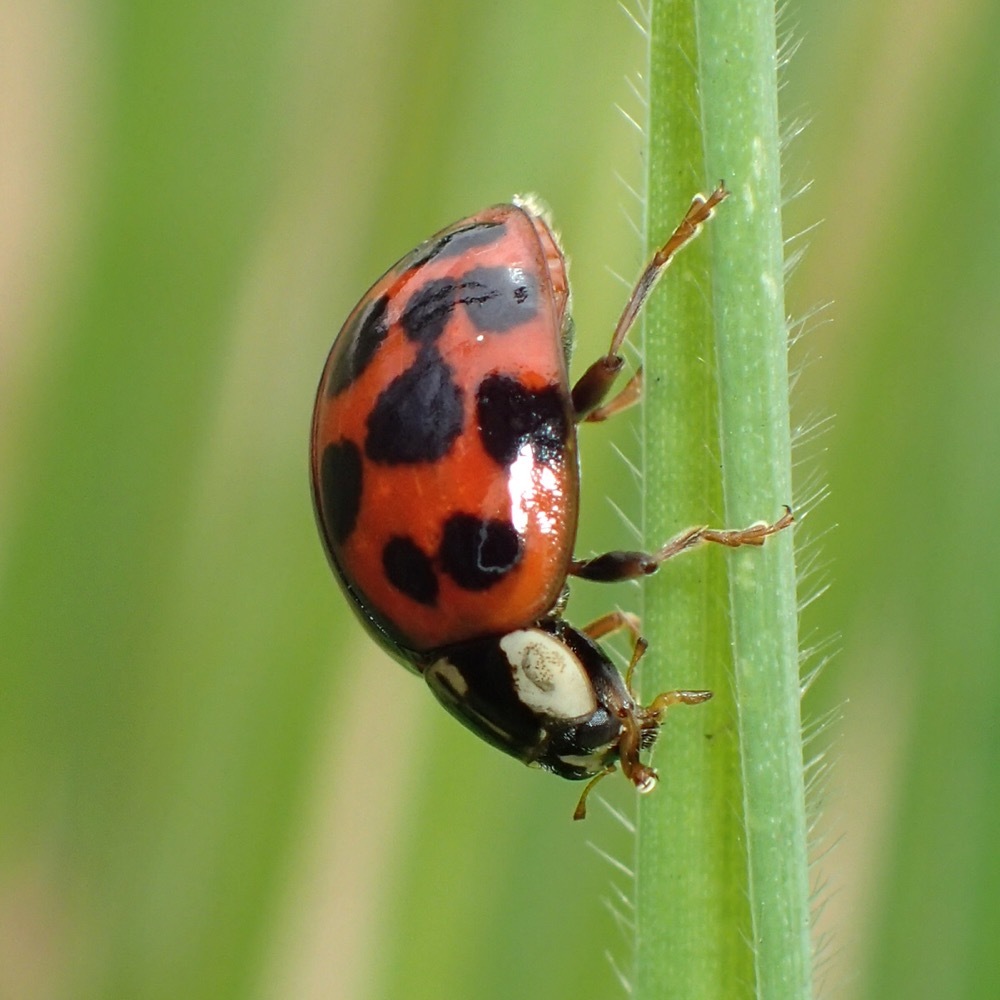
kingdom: Animalia
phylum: Arthropoda
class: Insecta
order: Coleoptera
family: Coccinellidae
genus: Harmonia
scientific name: Harmonia axyridis
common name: Harlequin ladybird
